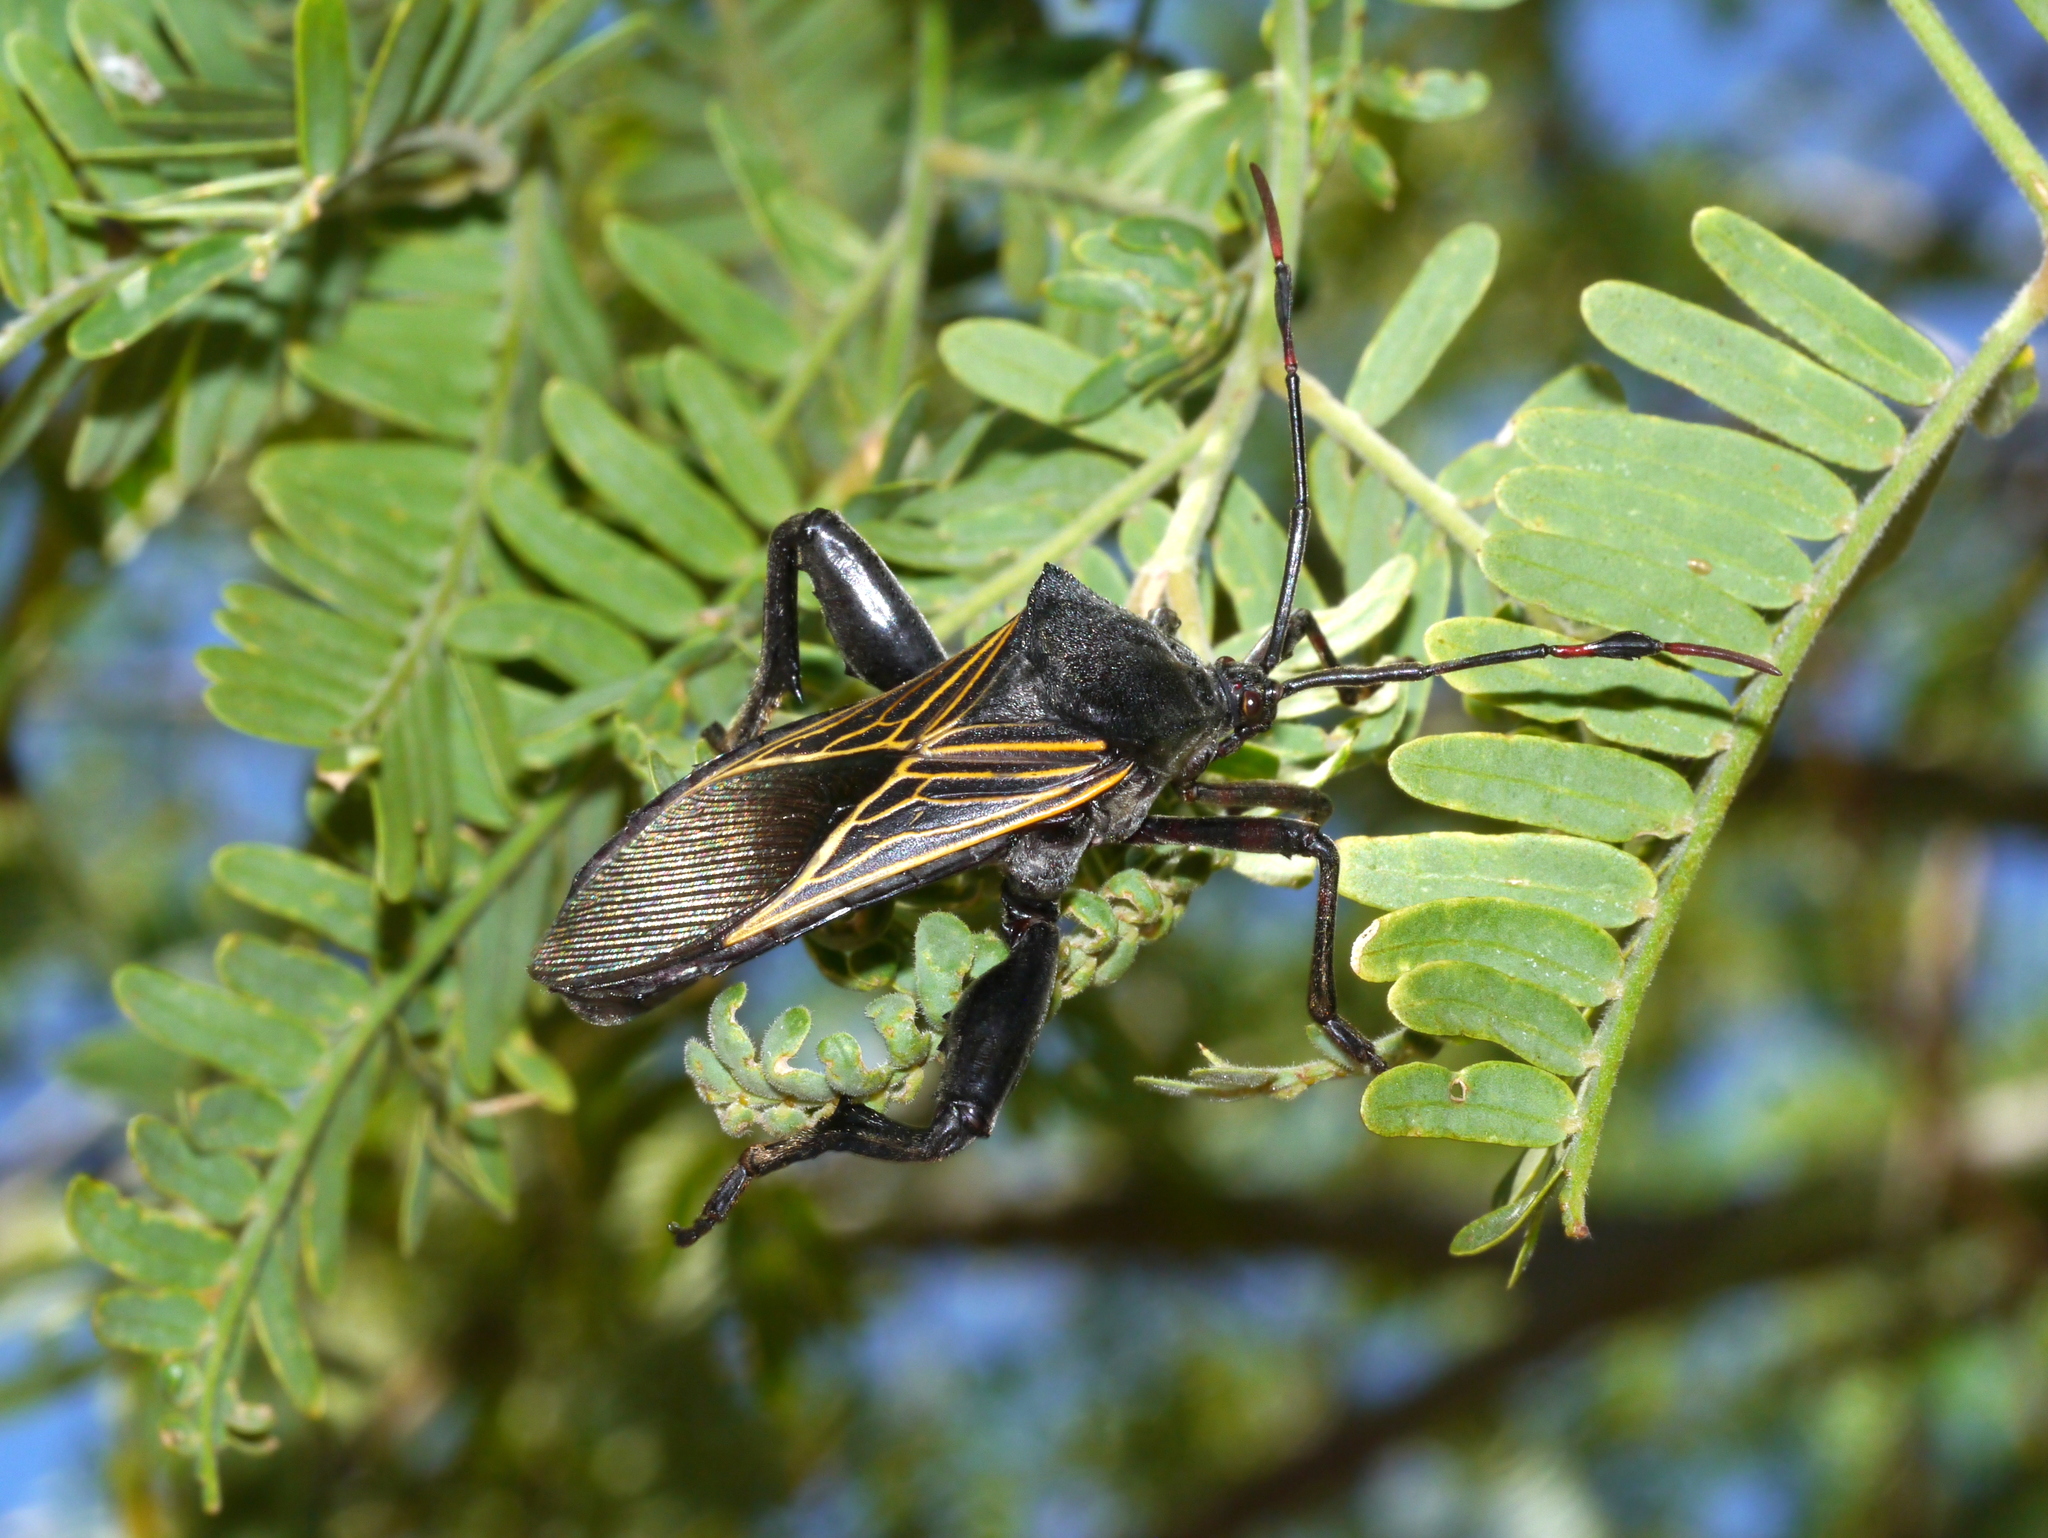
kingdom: Animalia
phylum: Arthropoda
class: Insecta
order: Hemiptera
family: Coreidae
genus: Thasus
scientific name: Thasus neocalifornicus
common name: Giant mesquite bug
